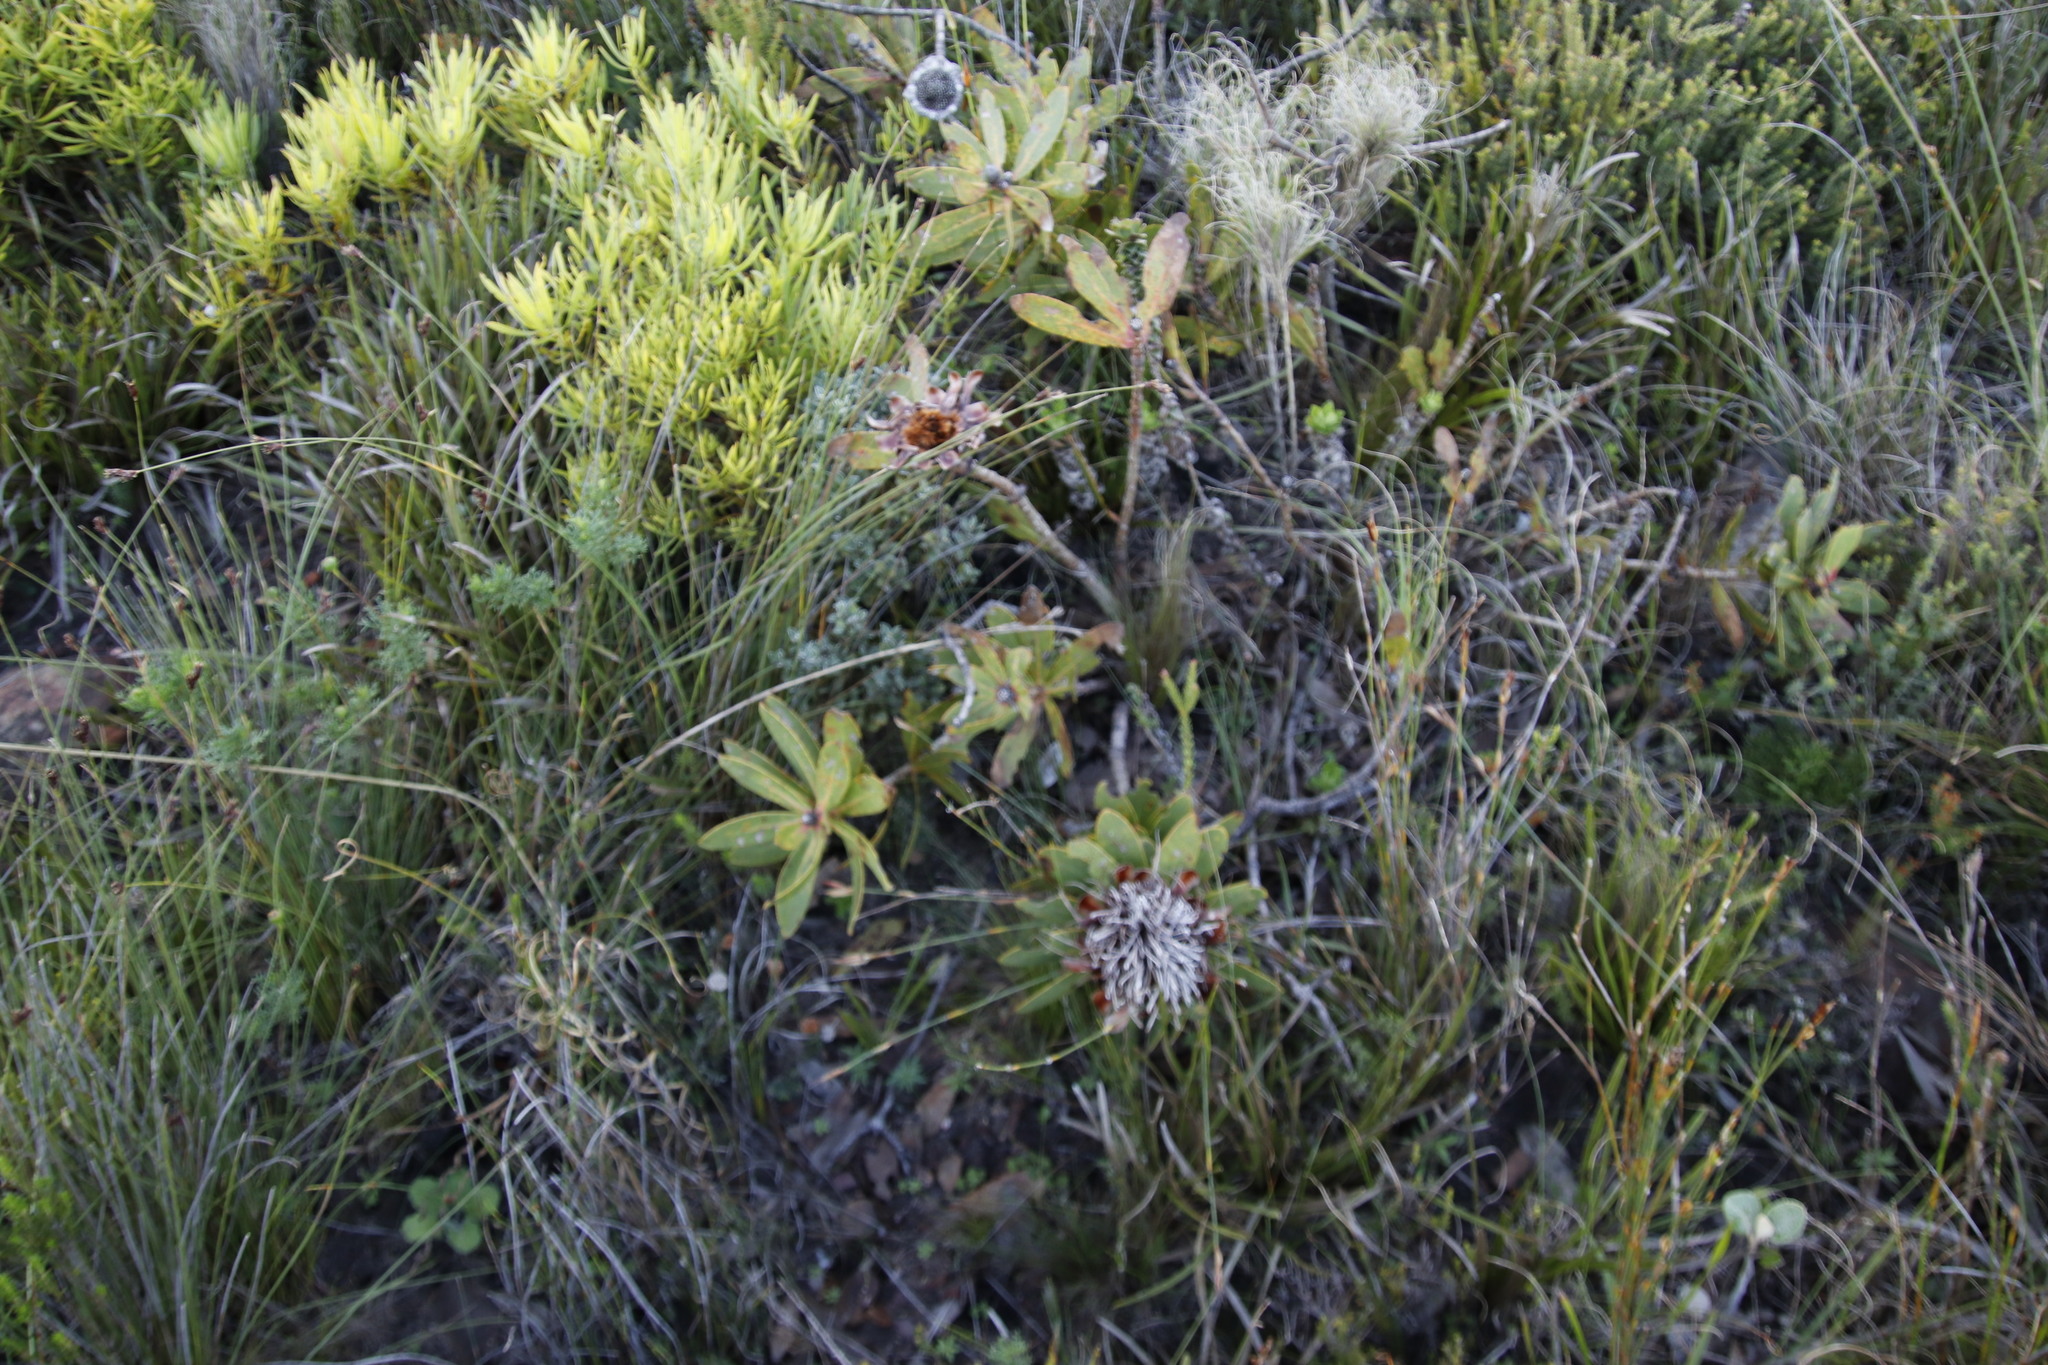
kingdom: Plantae
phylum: Tracheophyta
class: Magnoliopsida
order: Proteales
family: Proteaceae
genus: Protea
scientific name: Protea nitida
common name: Tree protea
